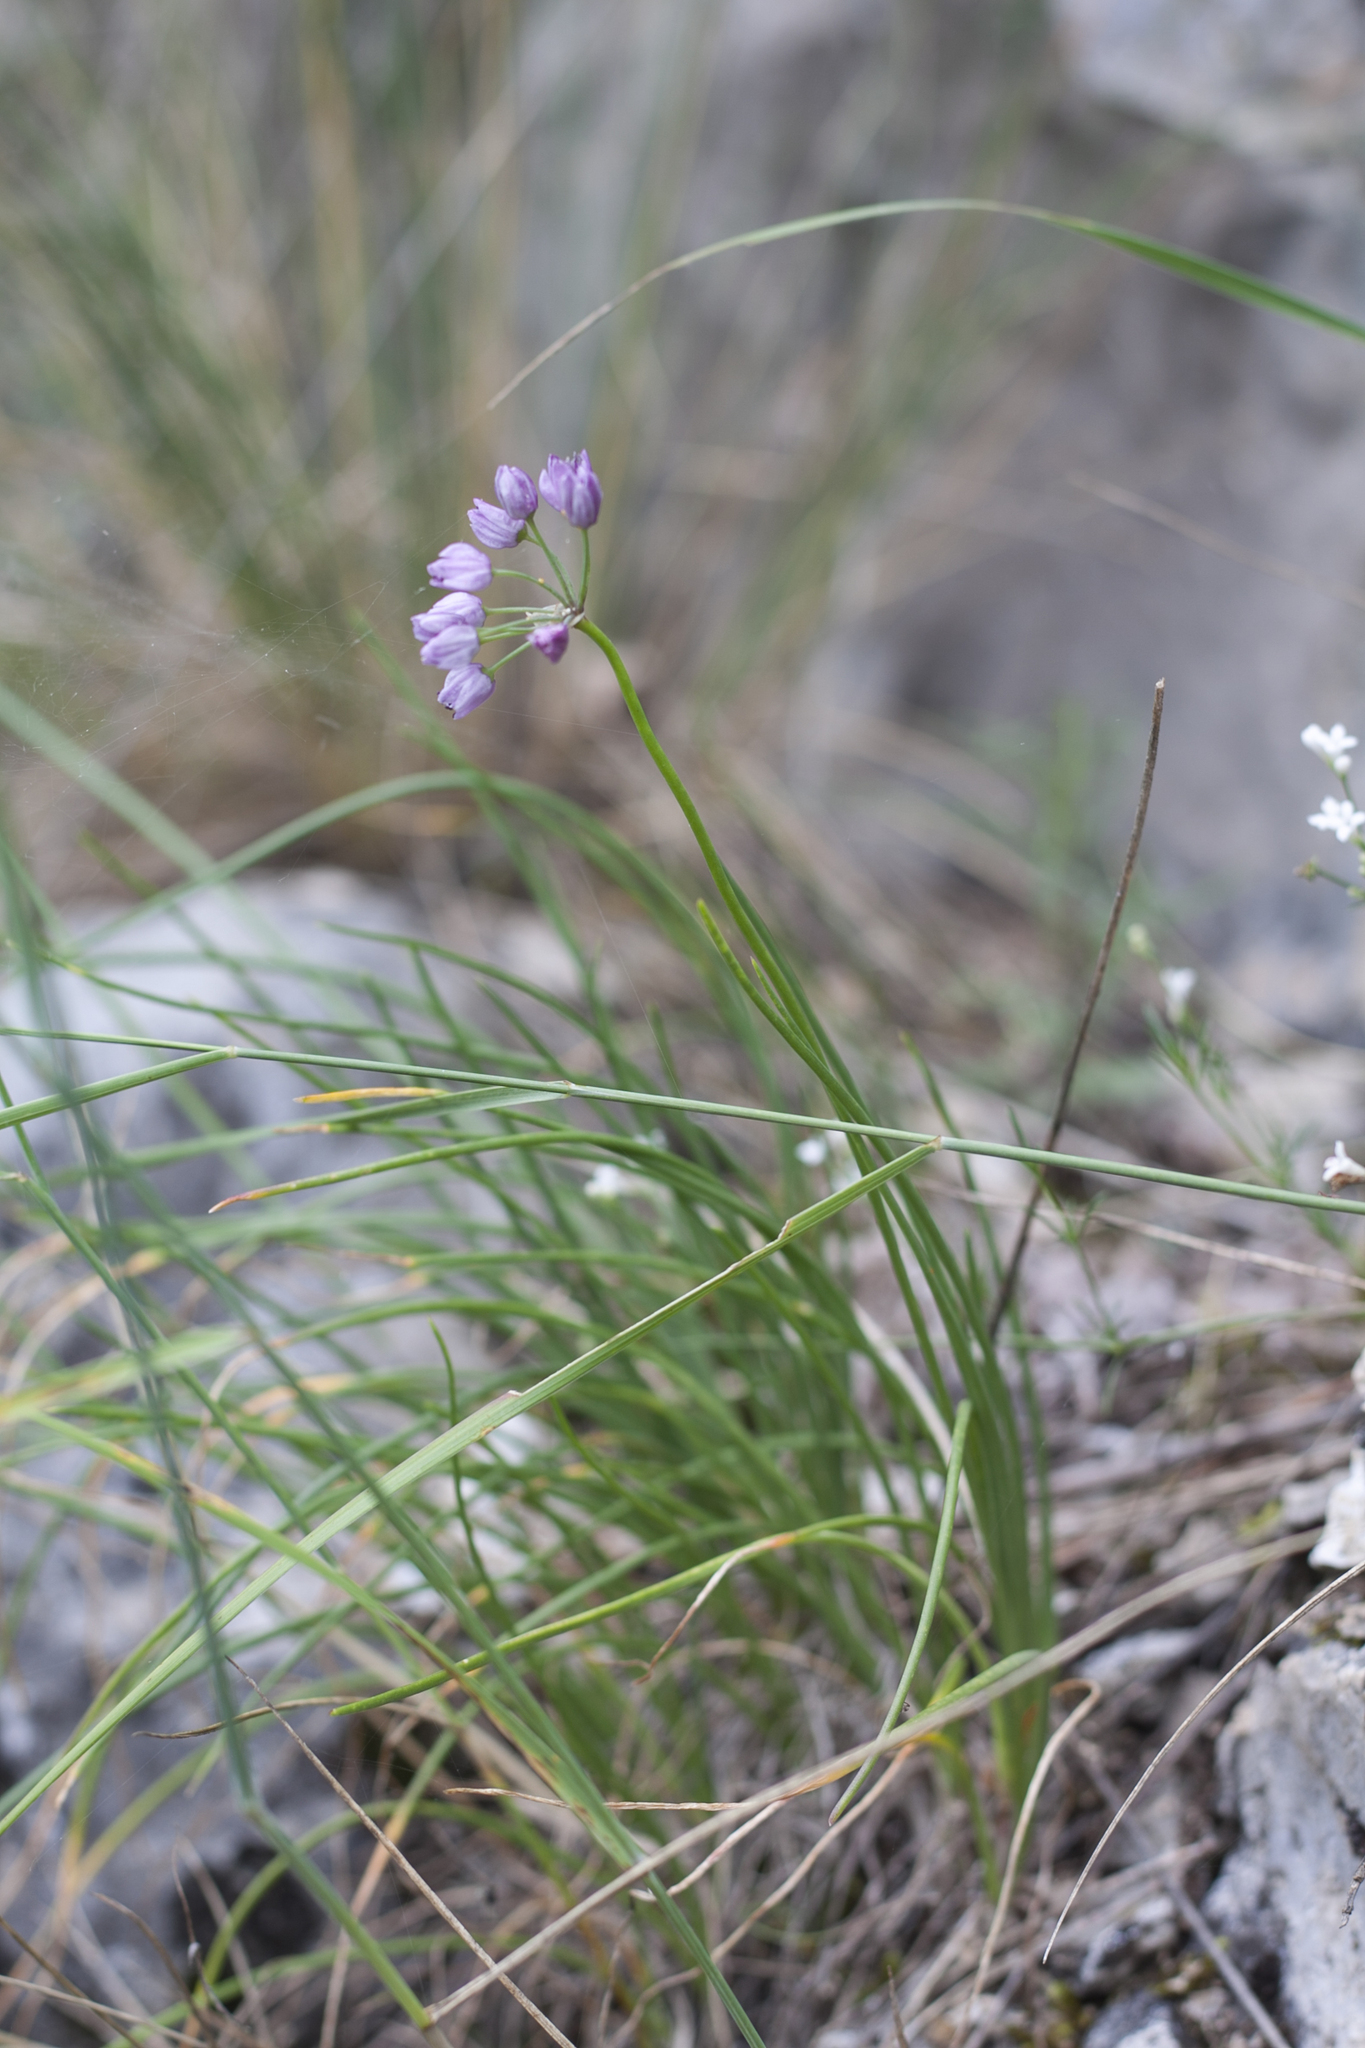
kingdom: Plantae
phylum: Tracheophyta
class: Liliopsida
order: Asparagales
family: Amaryllidaceae
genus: Allium
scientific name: Allium rubens
